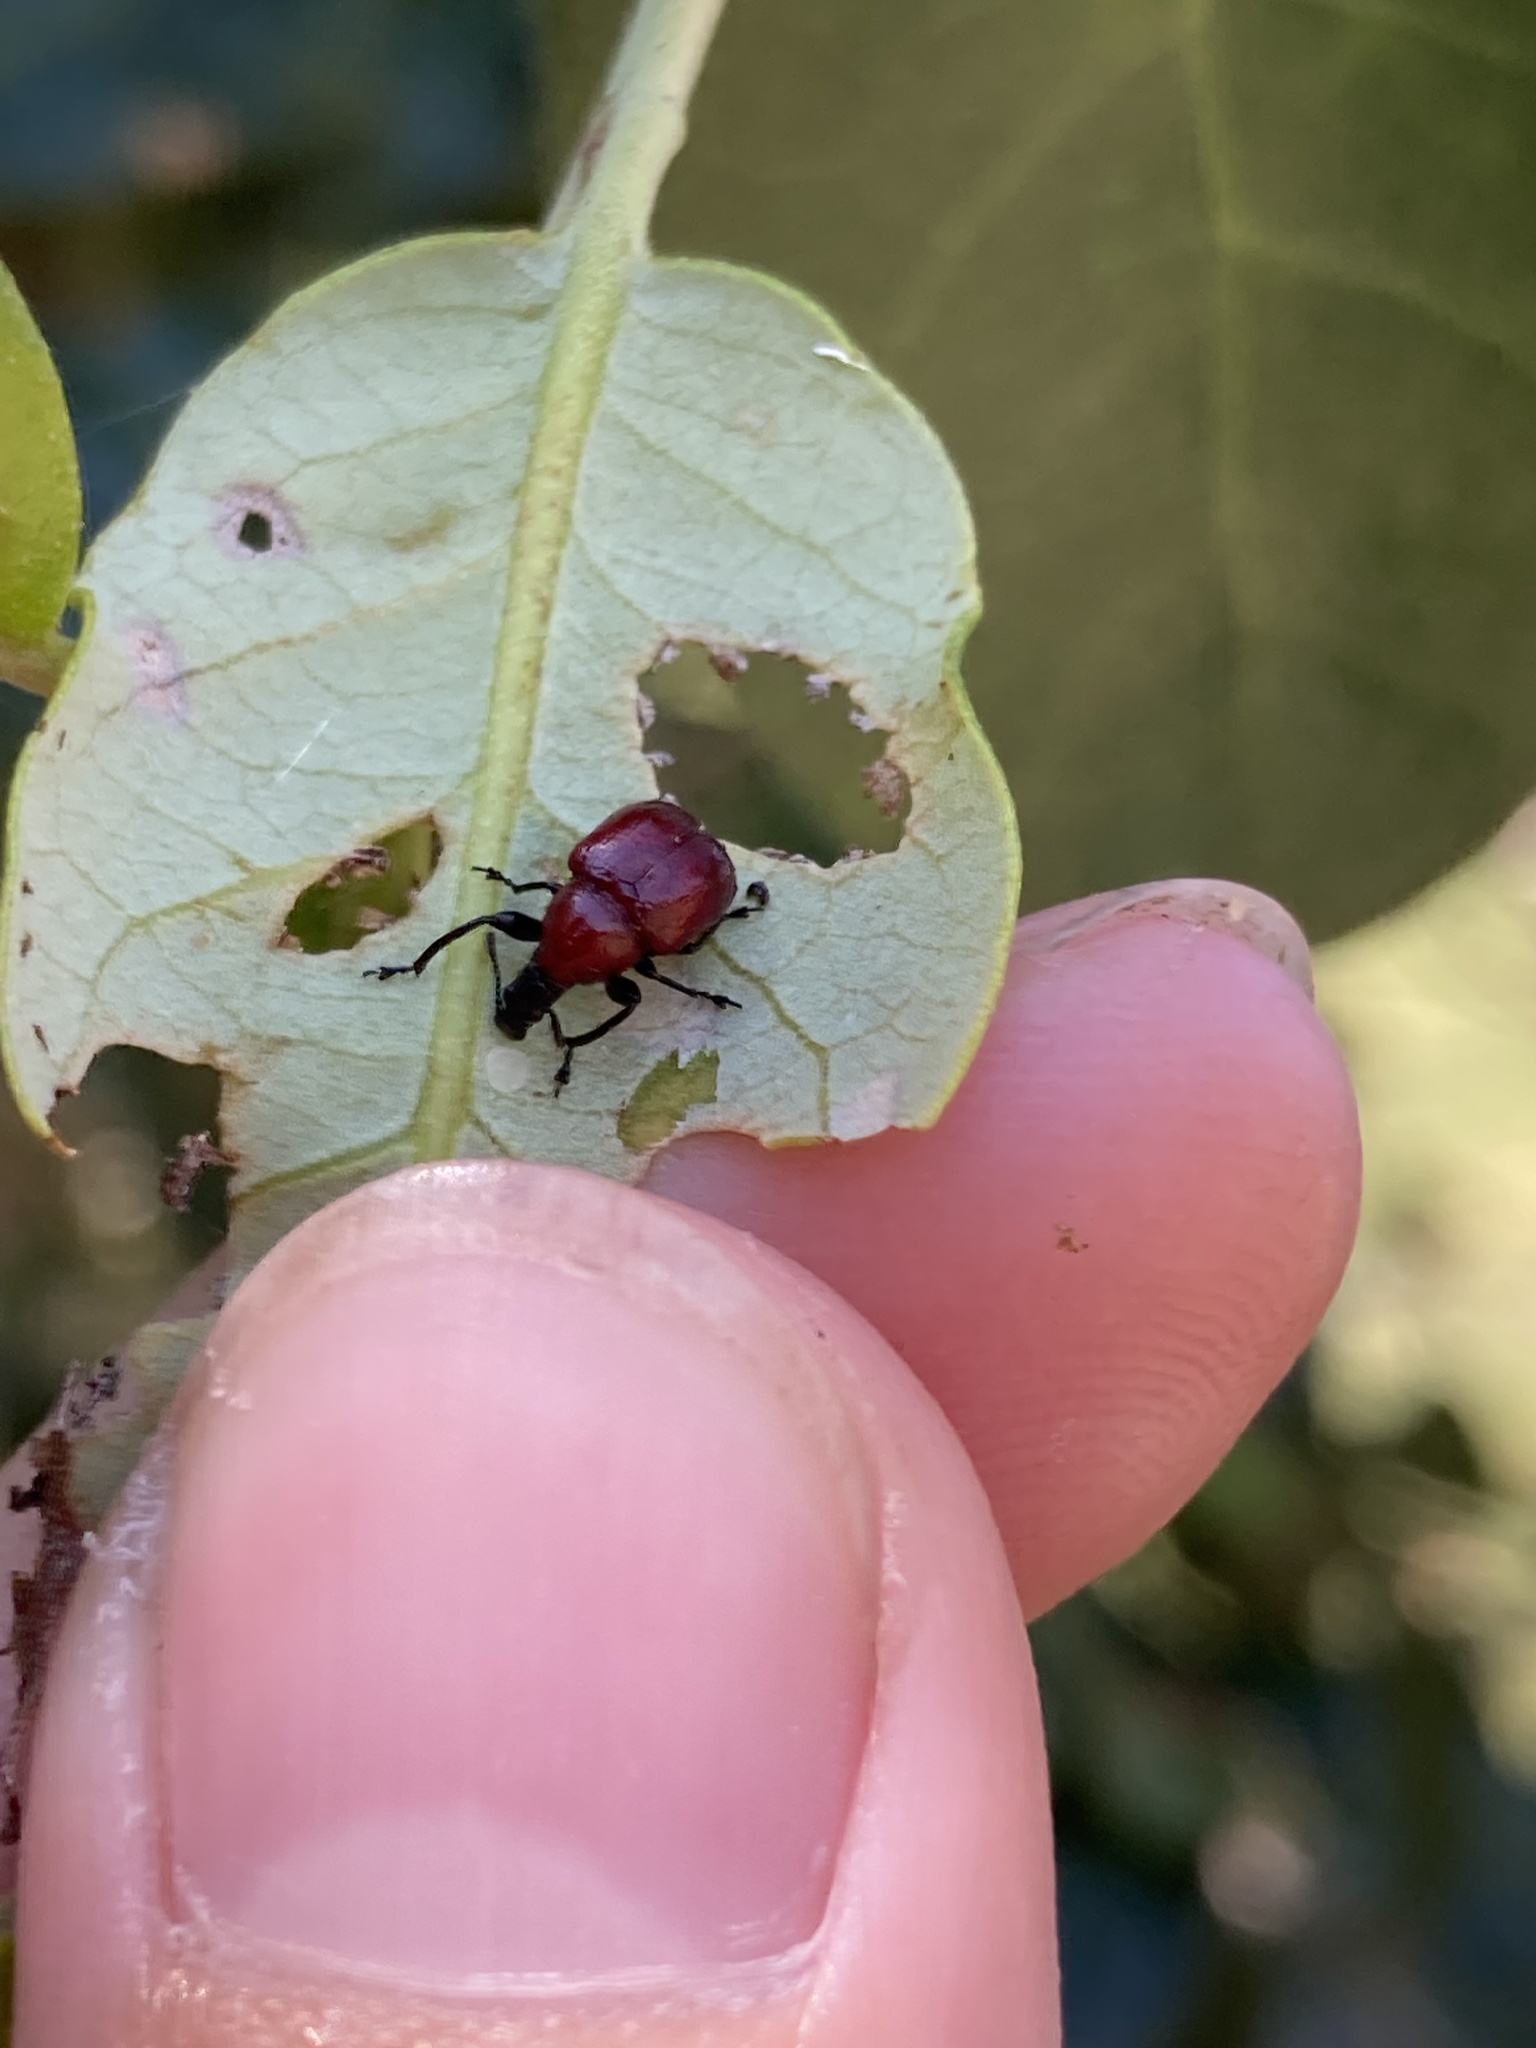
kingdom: Animalia
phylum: Arthropoda
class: Insecta
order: Coleoptera
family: Attelabidae
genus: Homoeolabus
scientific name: Homoeolabus analis
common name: Oak leaf rolling weevil
